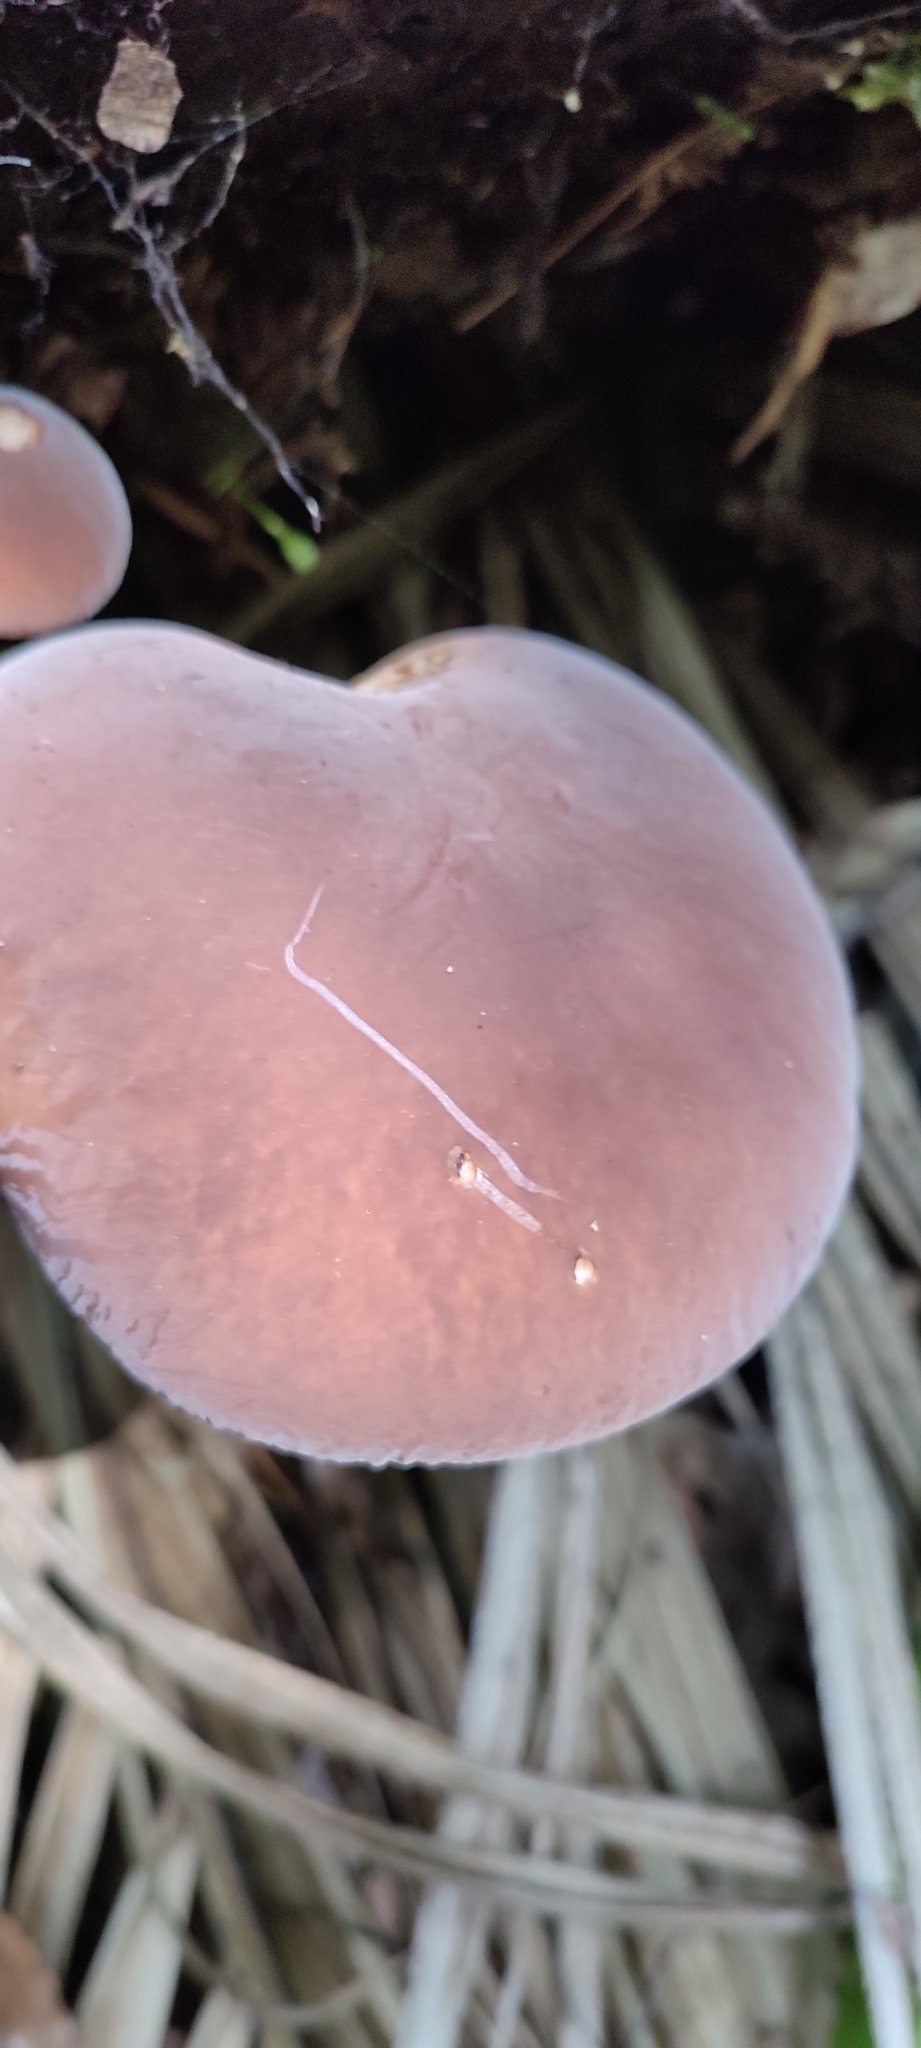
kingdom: Fungi
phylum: Basidiomycota
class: Agaricomycetes
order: Agaricales
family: Tubariaceae
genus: Cyclocybe
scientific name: Cyclocybe parasitica
